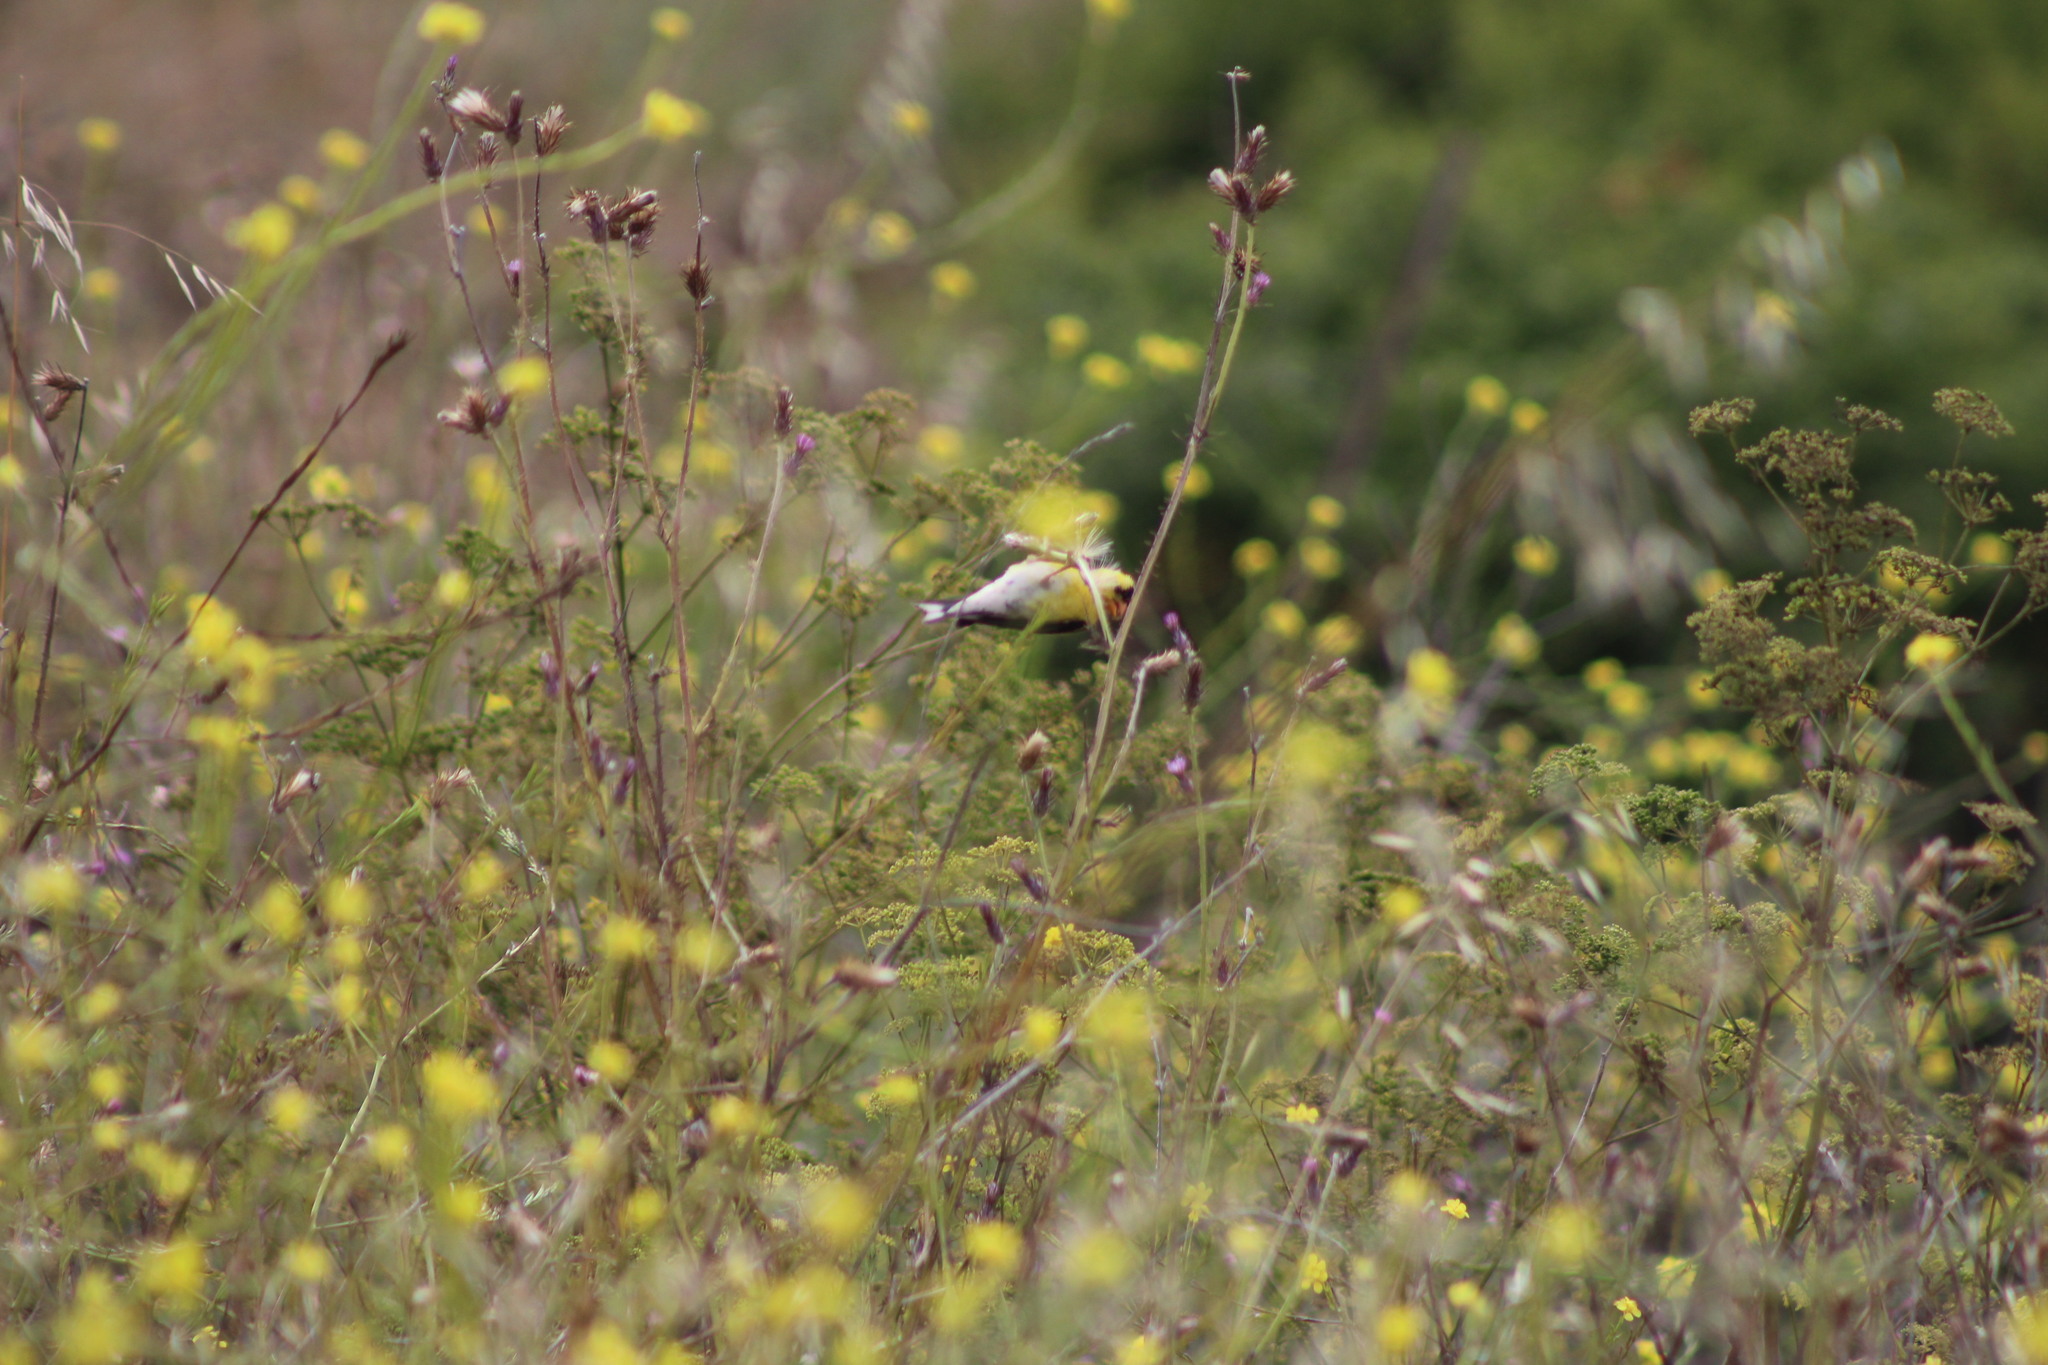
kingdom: Animalia
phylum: Chordata
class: Aves
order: Passeriformes
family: Fringillidae
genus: Spinus
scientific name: Spinus tristis
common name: American goldfinch
